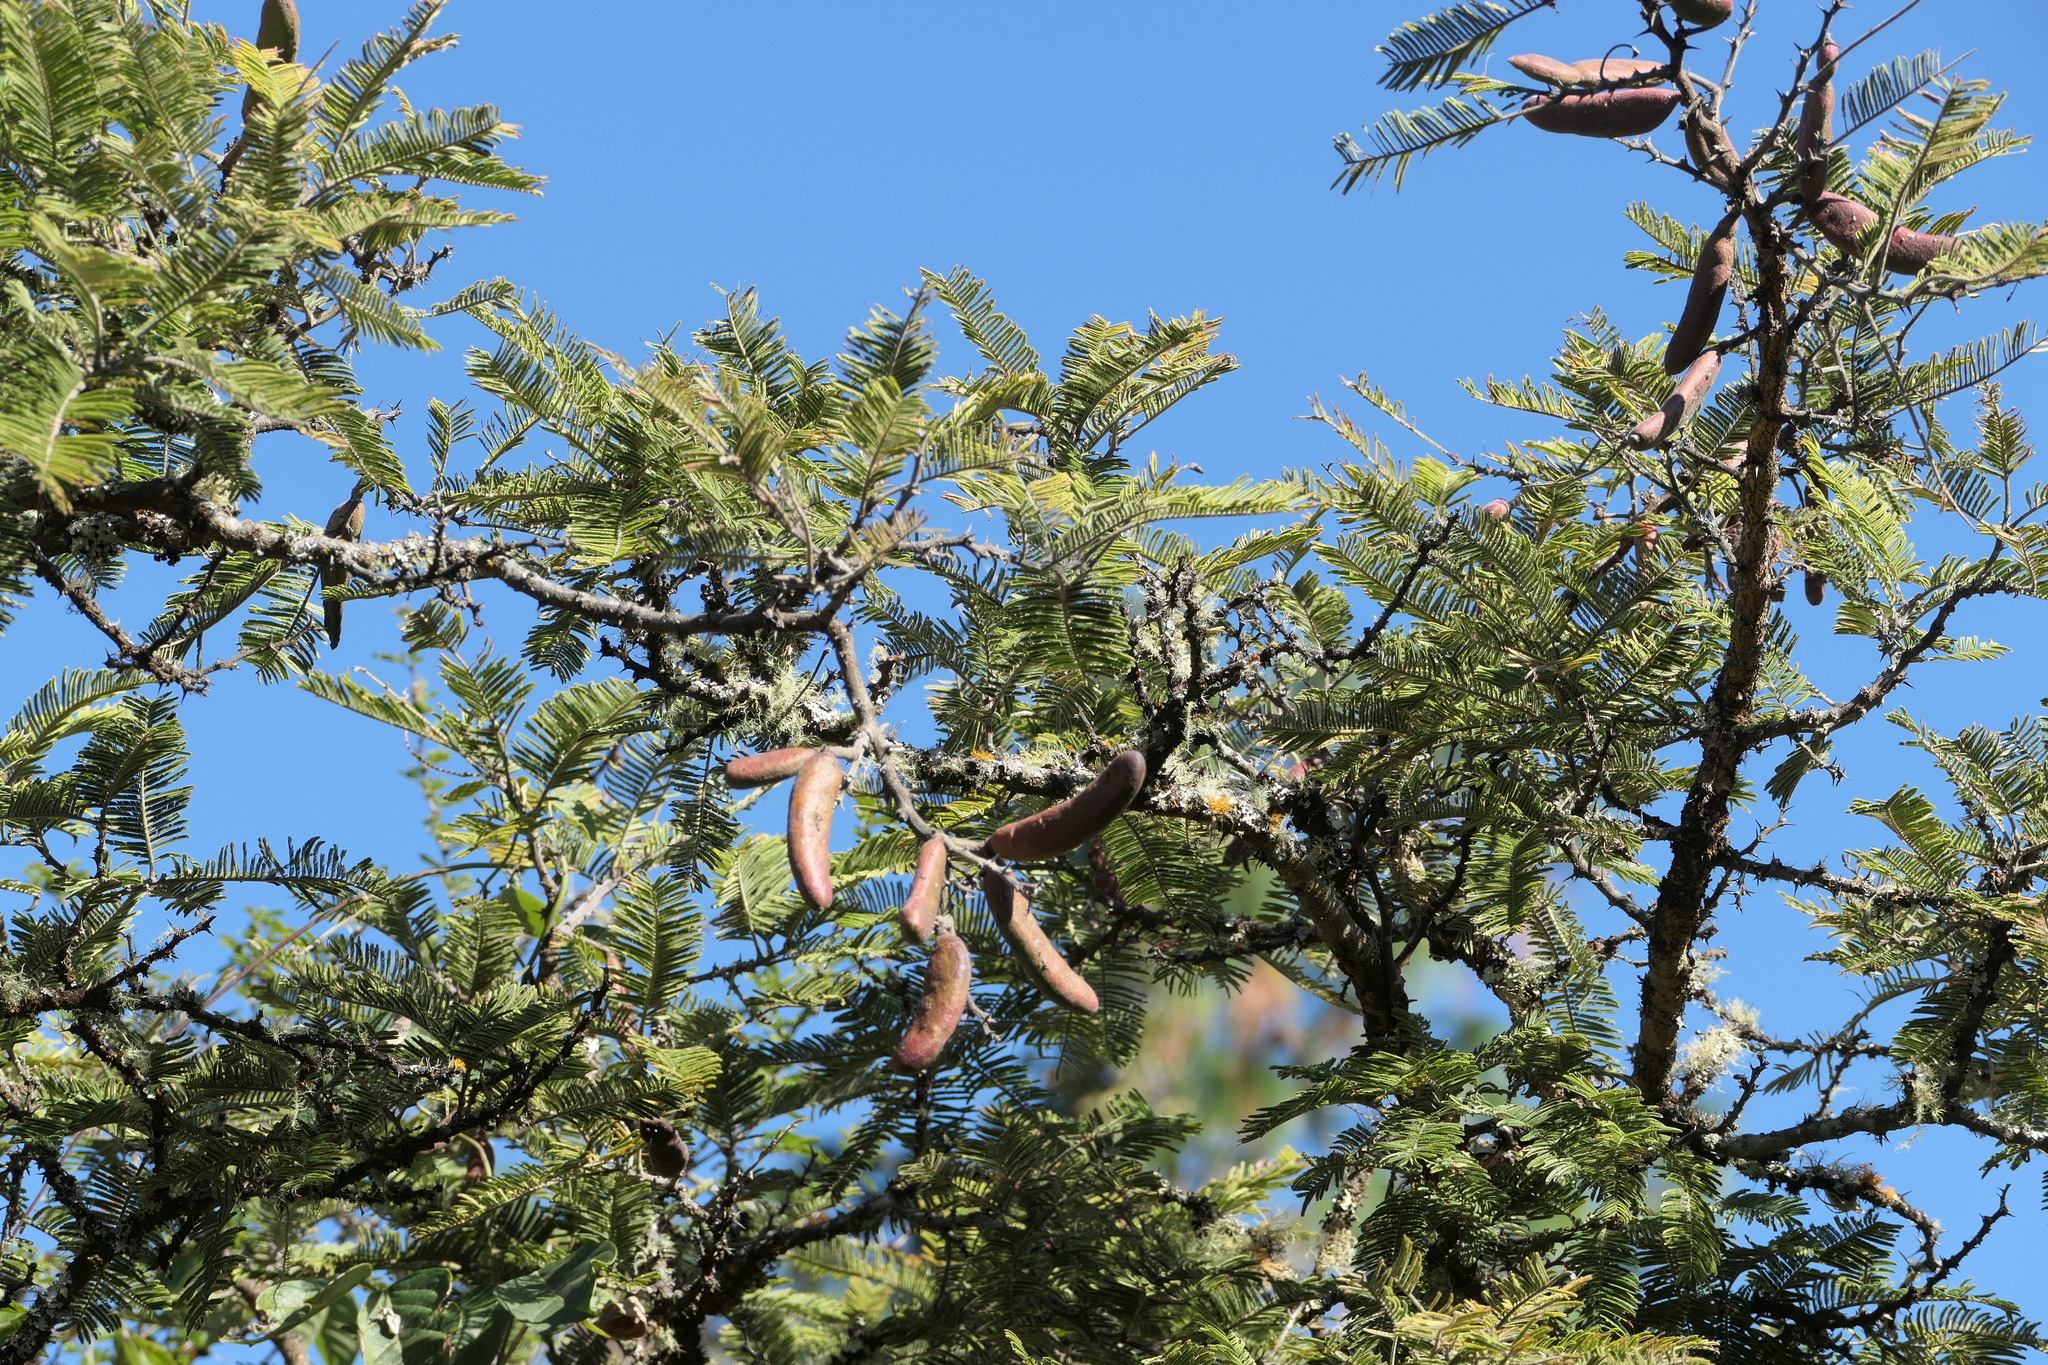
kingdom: Plantae
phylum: Tracheophyta
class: Magnoliopsida
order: Fabales
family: Fabaceae
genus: Vachellia
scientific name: Vachellia pennatula
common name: Fern-leaf acacia
